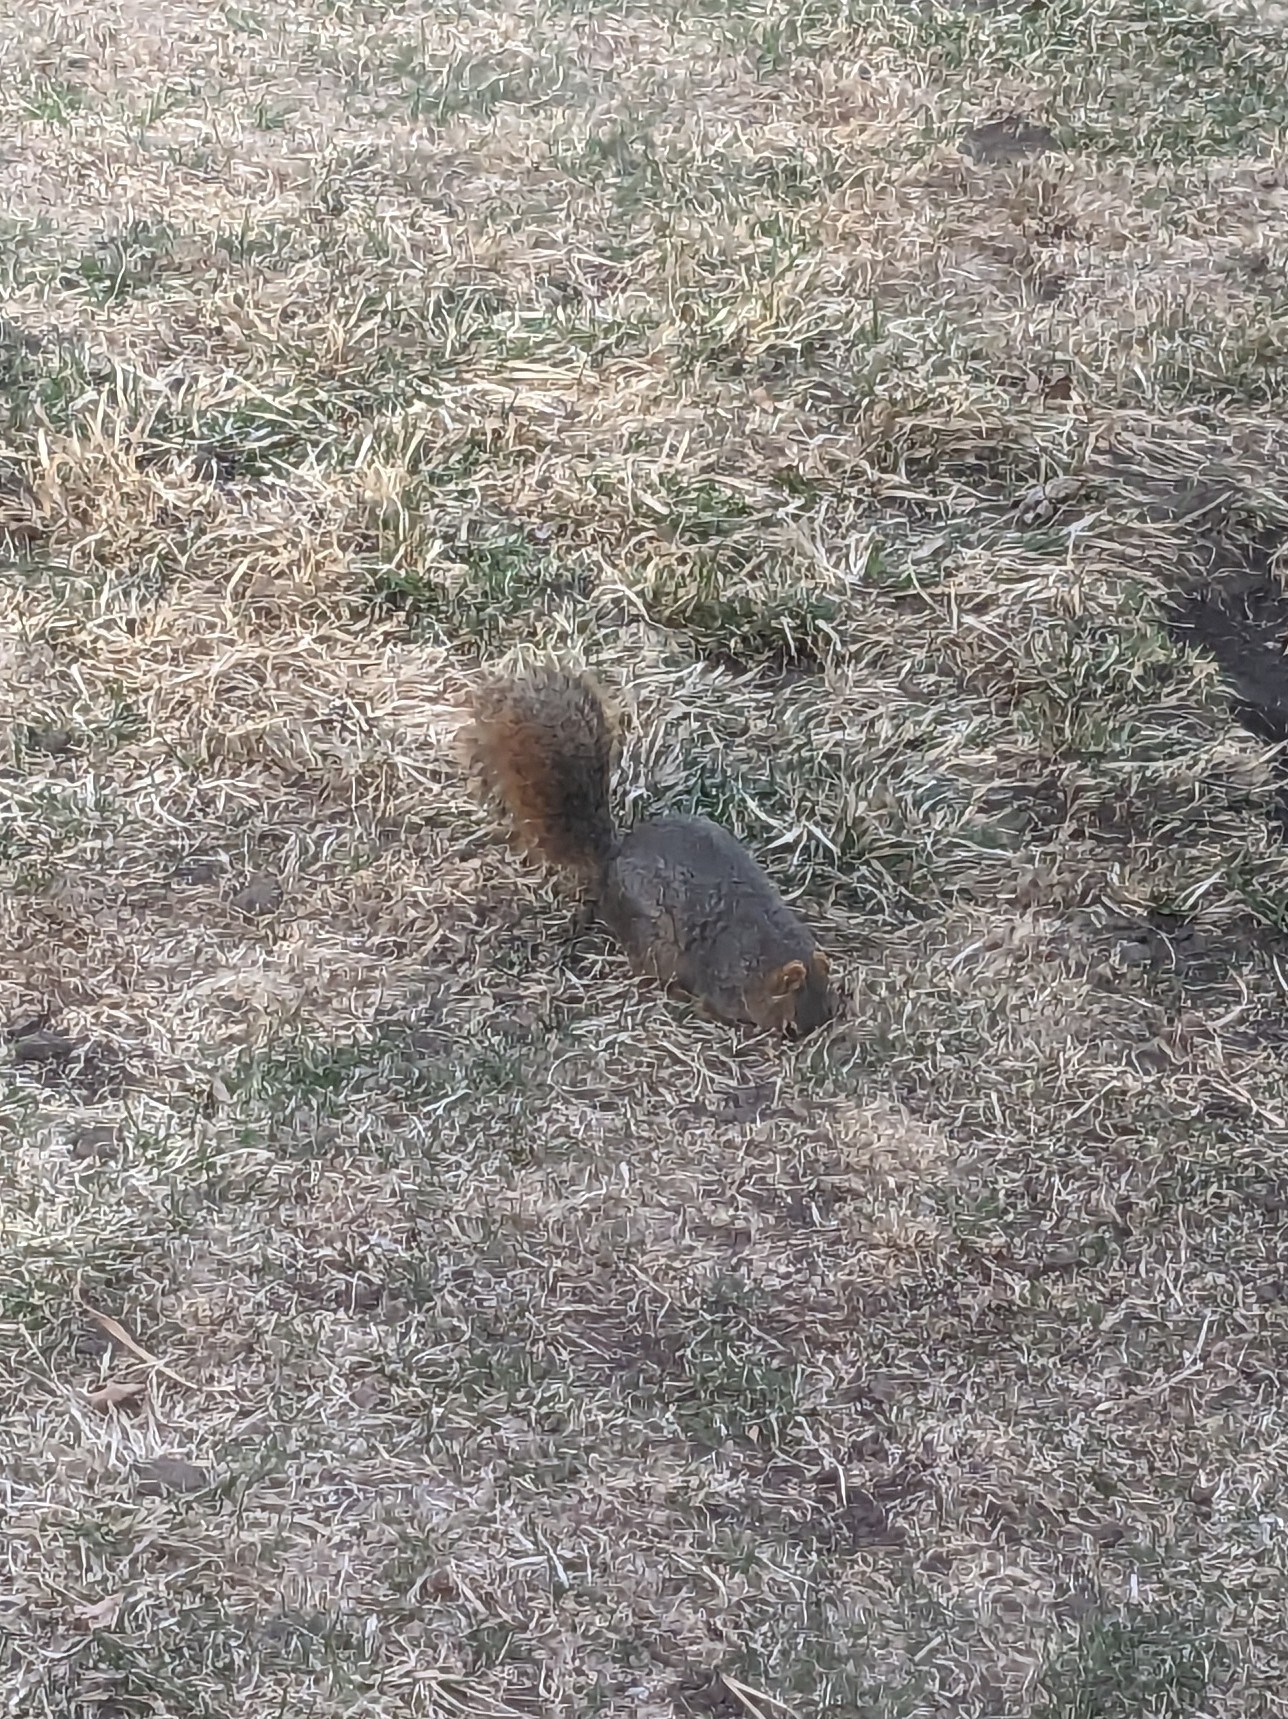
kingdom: Animalia
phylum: Chordata
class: Mammalia
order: Rodentia
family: Sciuridae
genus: Sciurus
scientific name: Sciurus niger
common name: Fox squirrel
